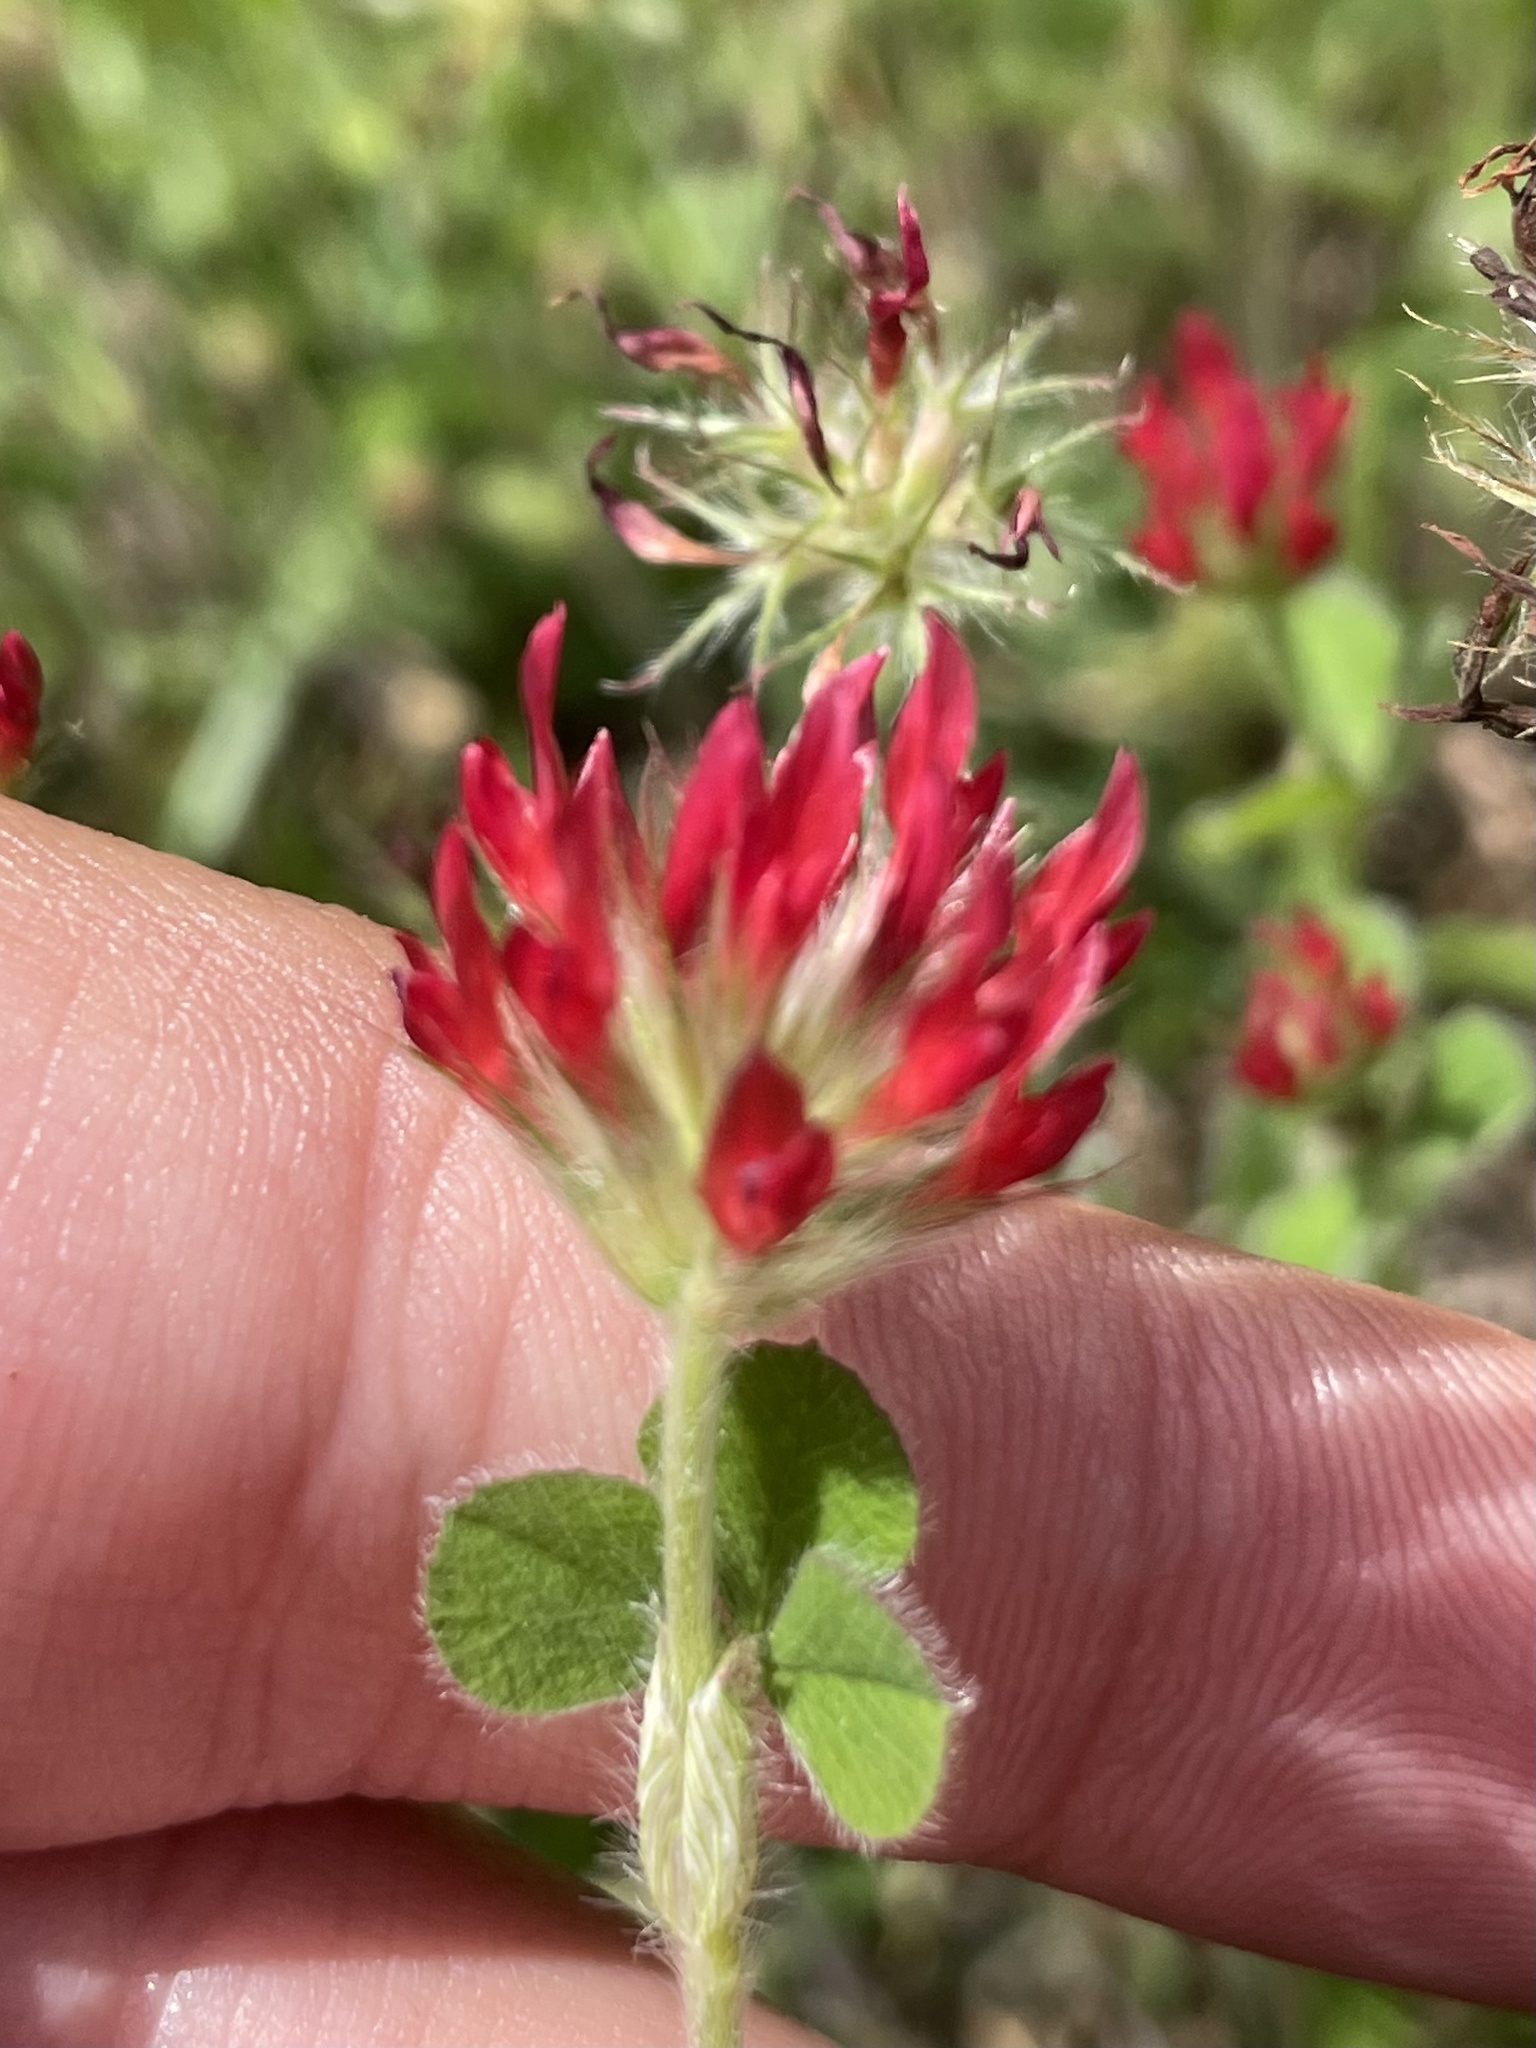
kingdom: Plantae
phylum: Tracheophyta
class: Magnoliopsida
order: Fabales
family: Fabaceae
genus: Trifolium
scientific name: Trifolium incarnatum
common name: Crimson clover
